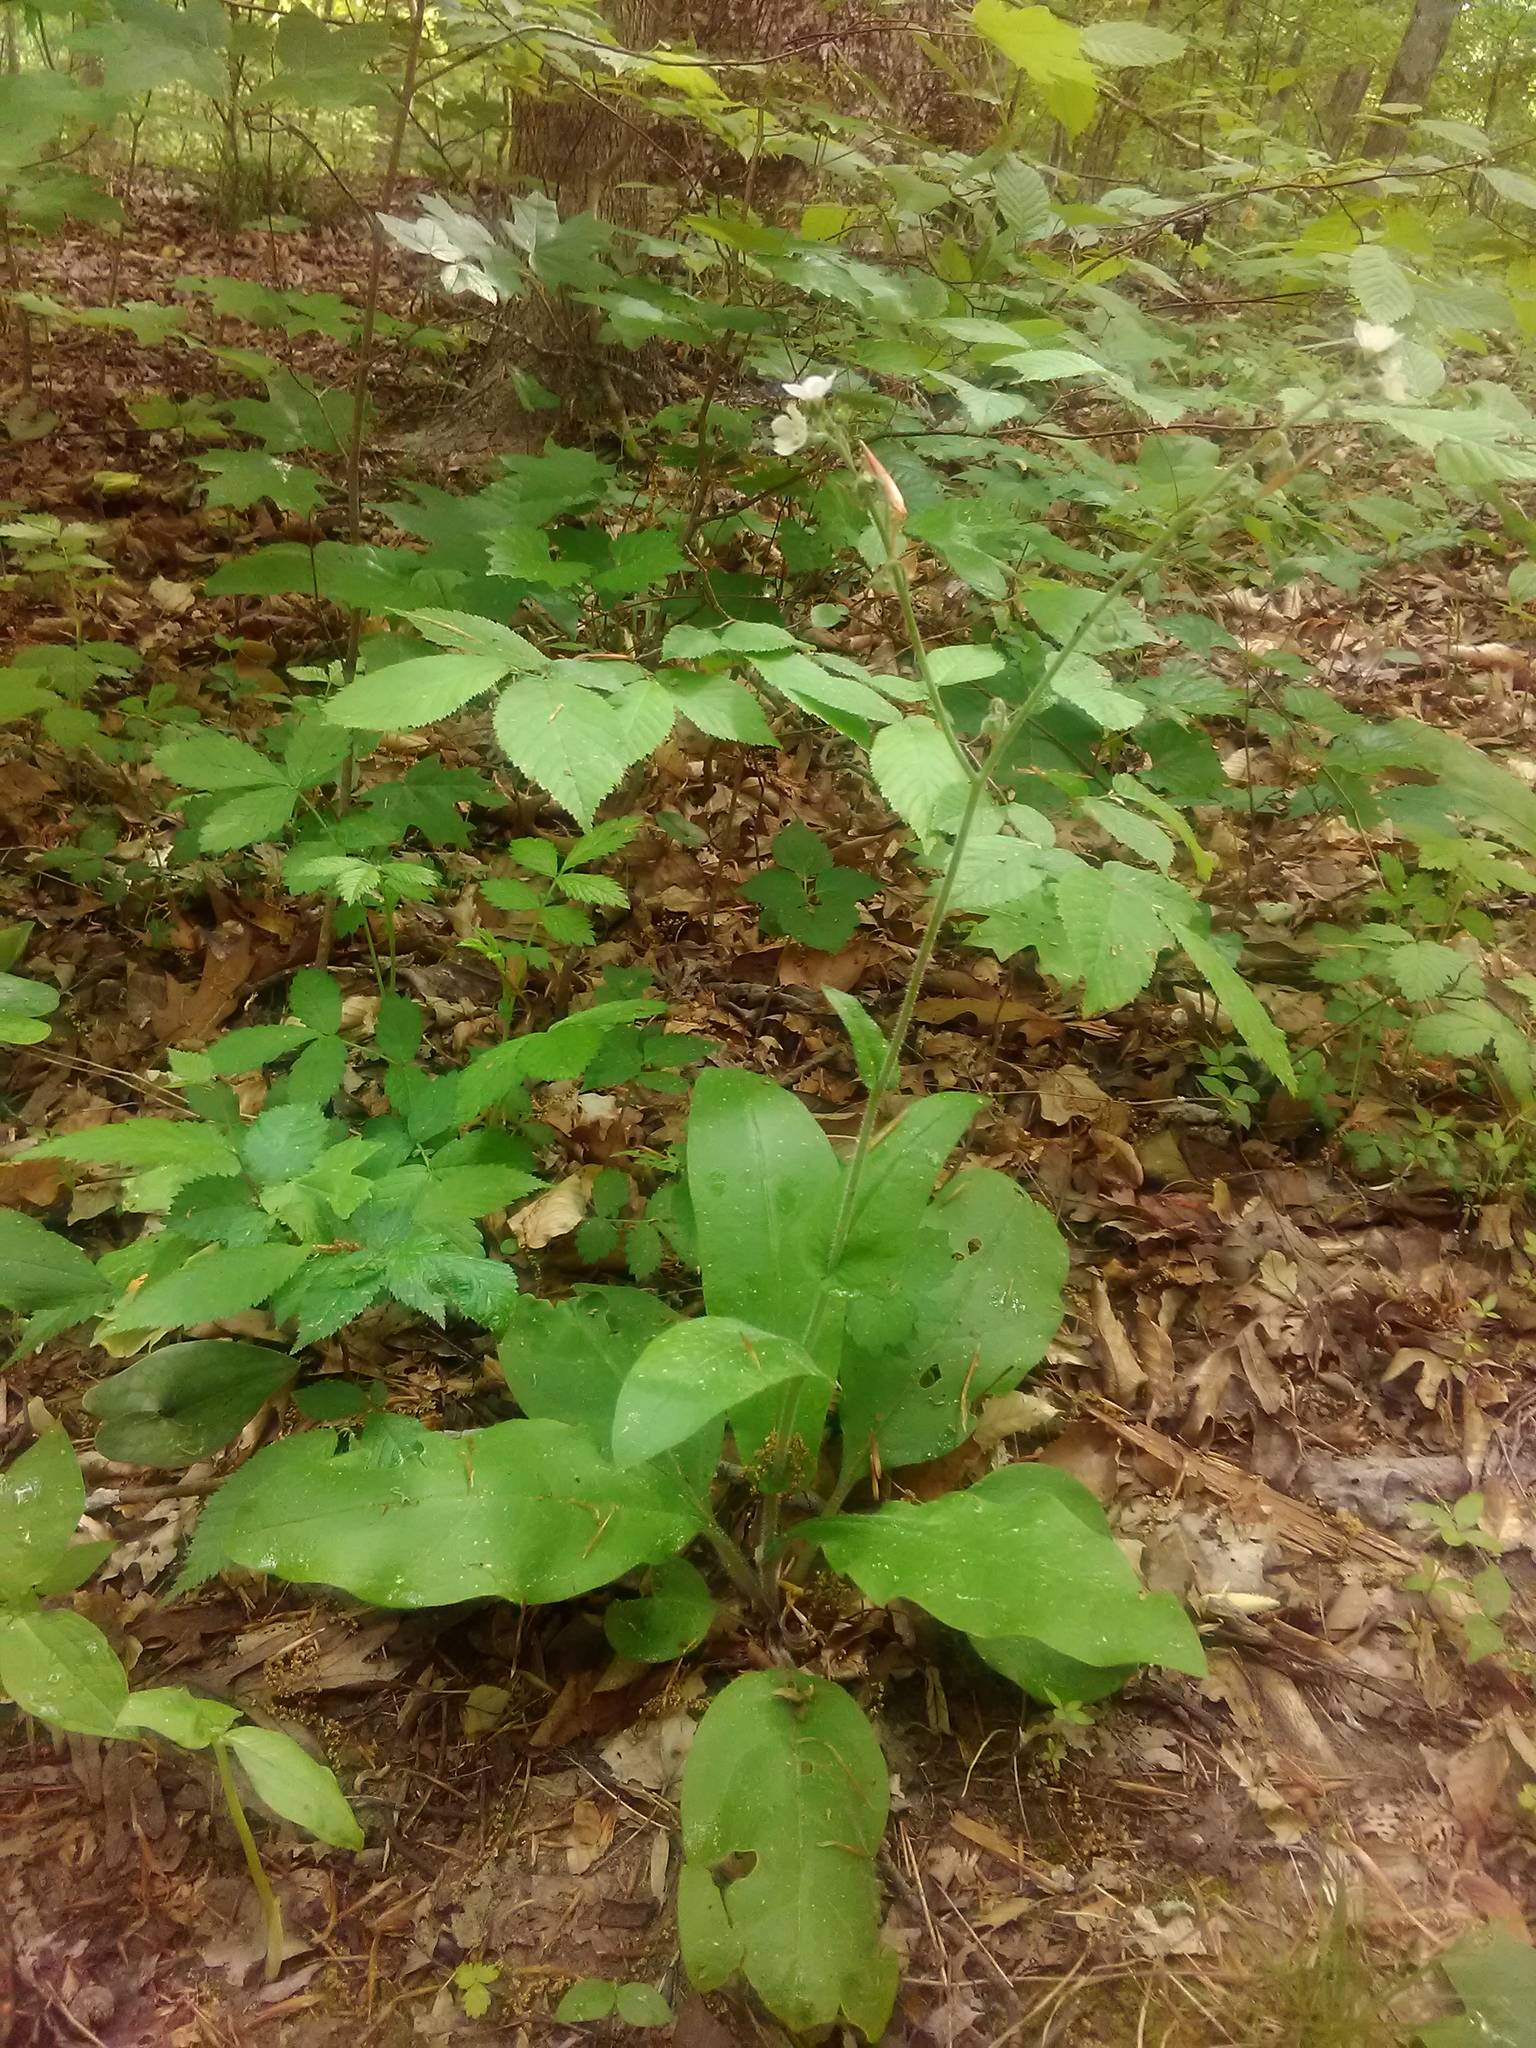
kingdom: Plantae
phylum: Tracheophyta
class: Magnoliopsida
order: Boraginales
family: Boraginaceae
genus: Andersonglossum
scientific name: Andersonglossum virginianum
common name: Wild comfrey
